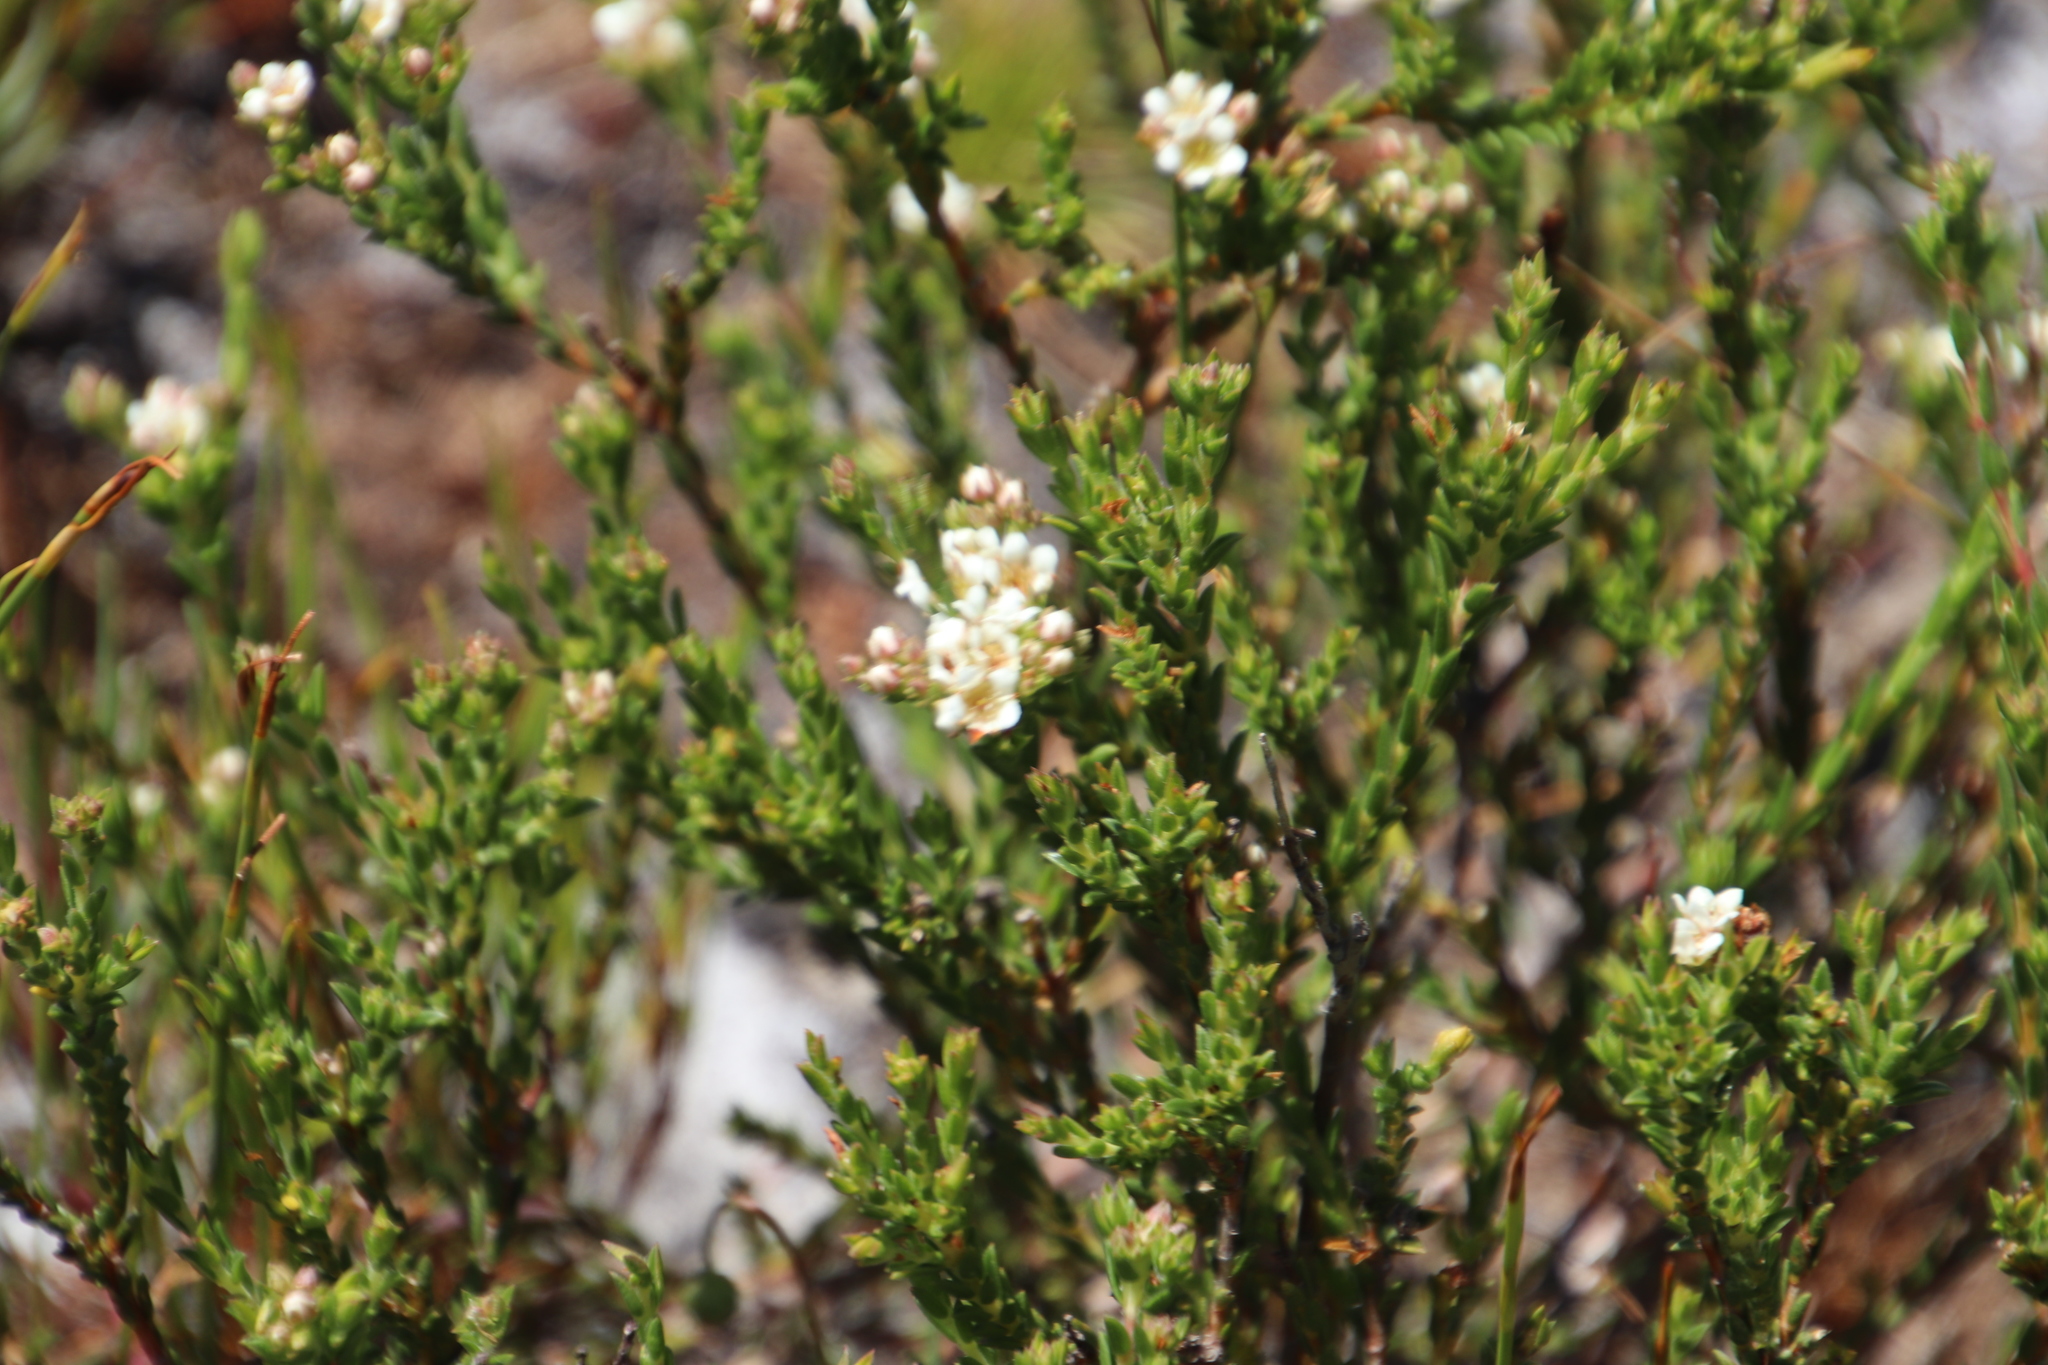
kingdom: Plantae
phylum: Tracheophyta
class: Magnoliopsida
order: Sapindales
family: Rutaceae
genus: Diosma
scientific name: Diosma oppositifolia
